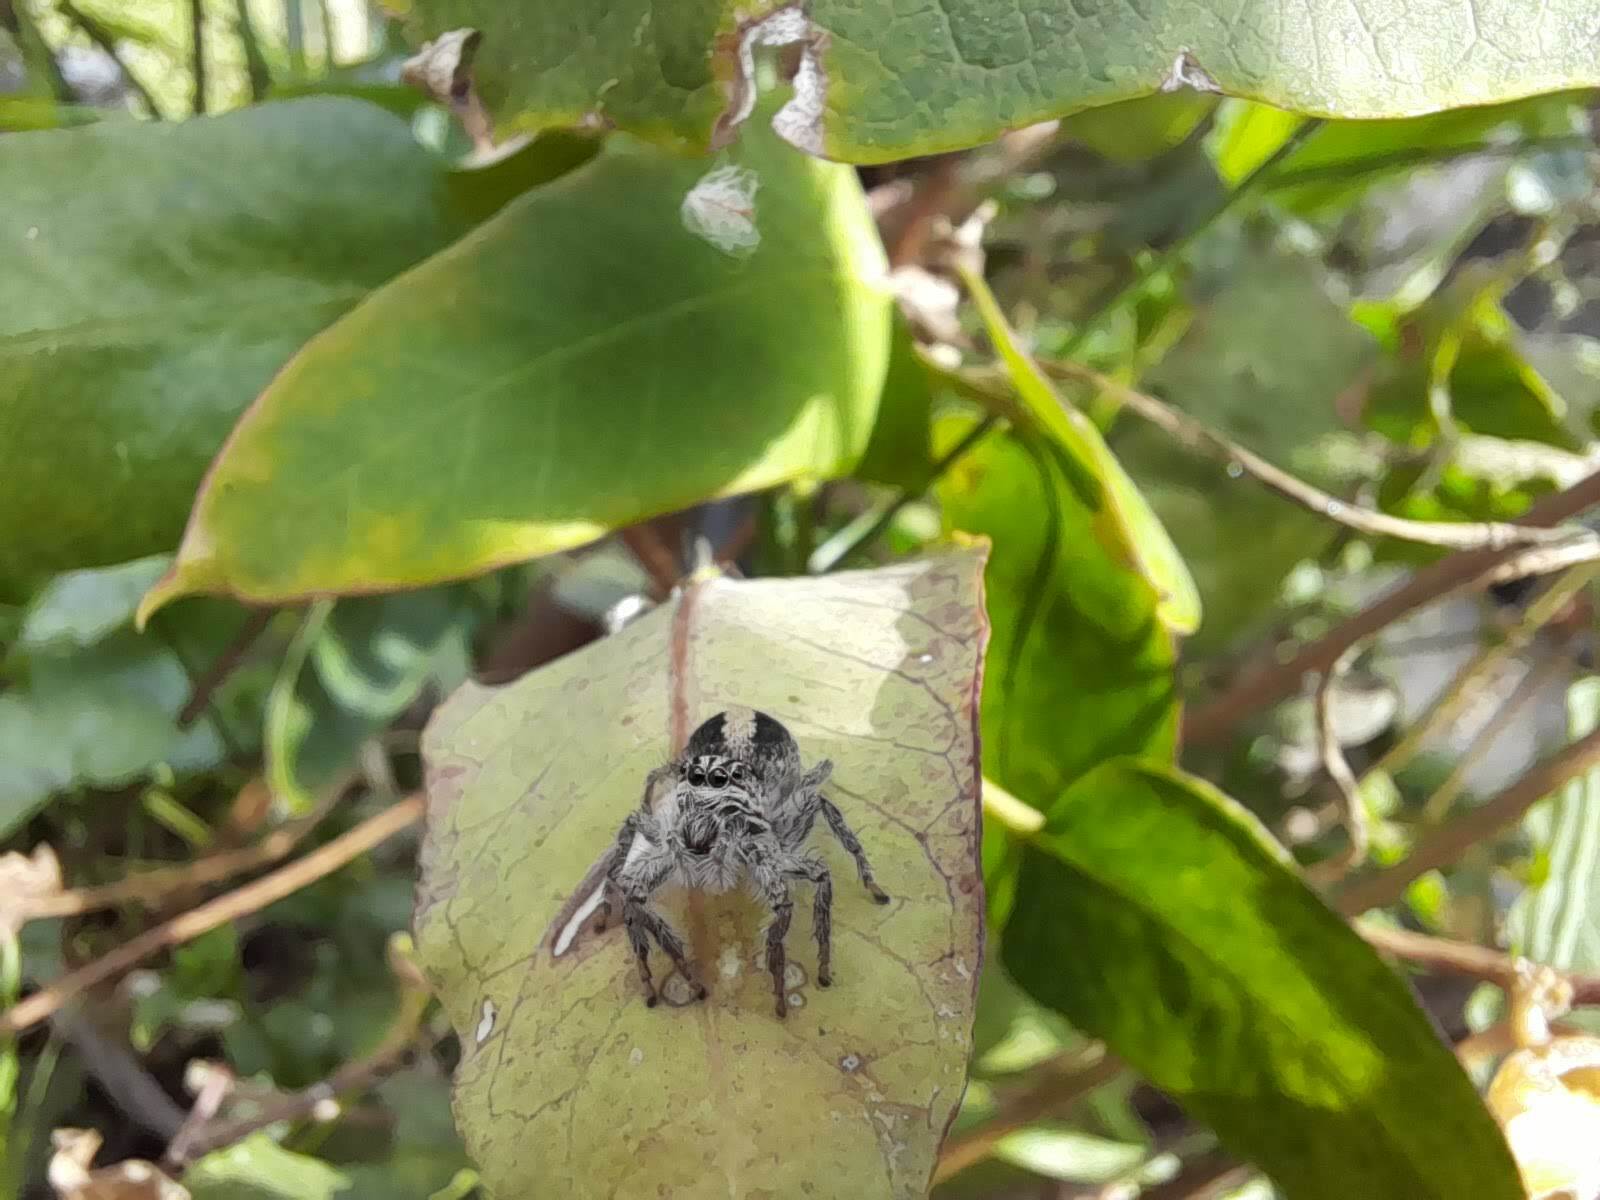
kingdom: Animalia
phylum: Arthropoda
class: Arachnida
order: Araneae
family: Salticidae
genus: Megafreya
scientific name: Megafreya sutrix
